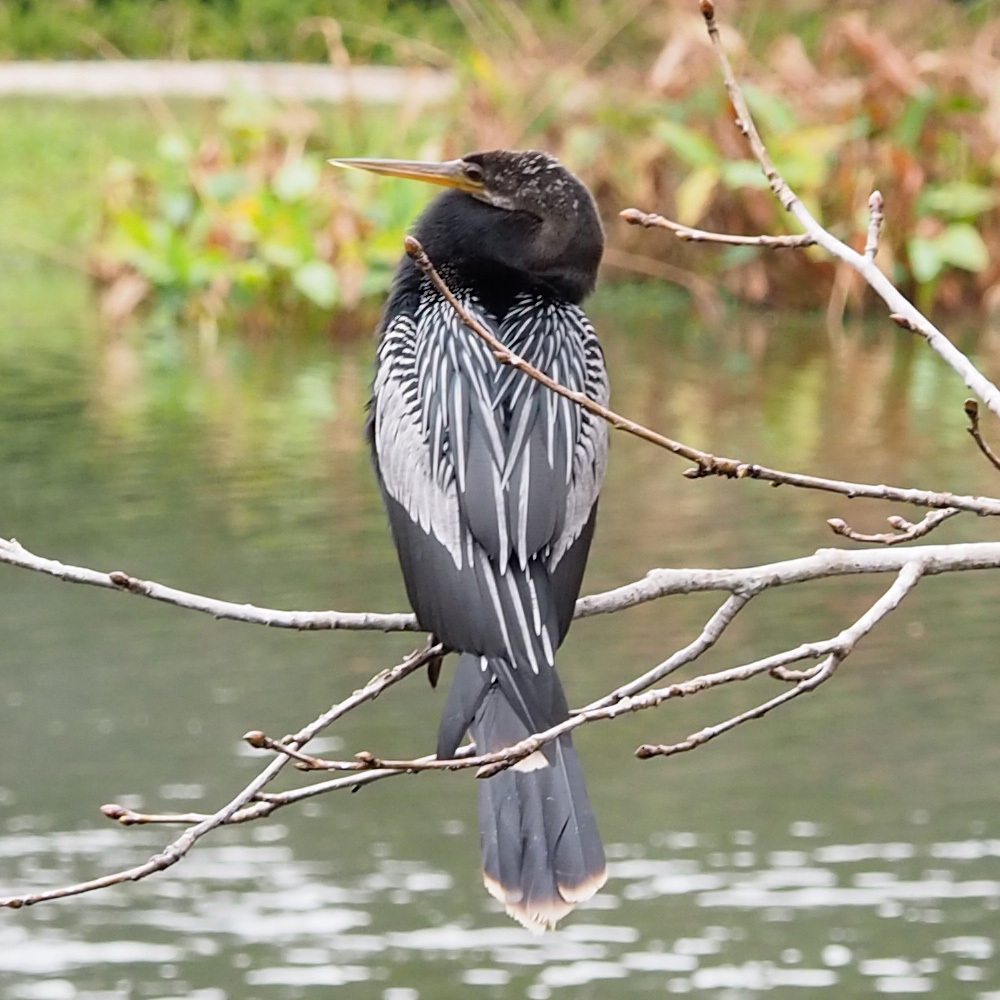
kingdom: Animalia
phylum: Chordata
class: Aves
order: Suliformes
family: Anhingidae
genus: Anhinga
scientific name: Anhinga anhinga
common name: Anhinga
